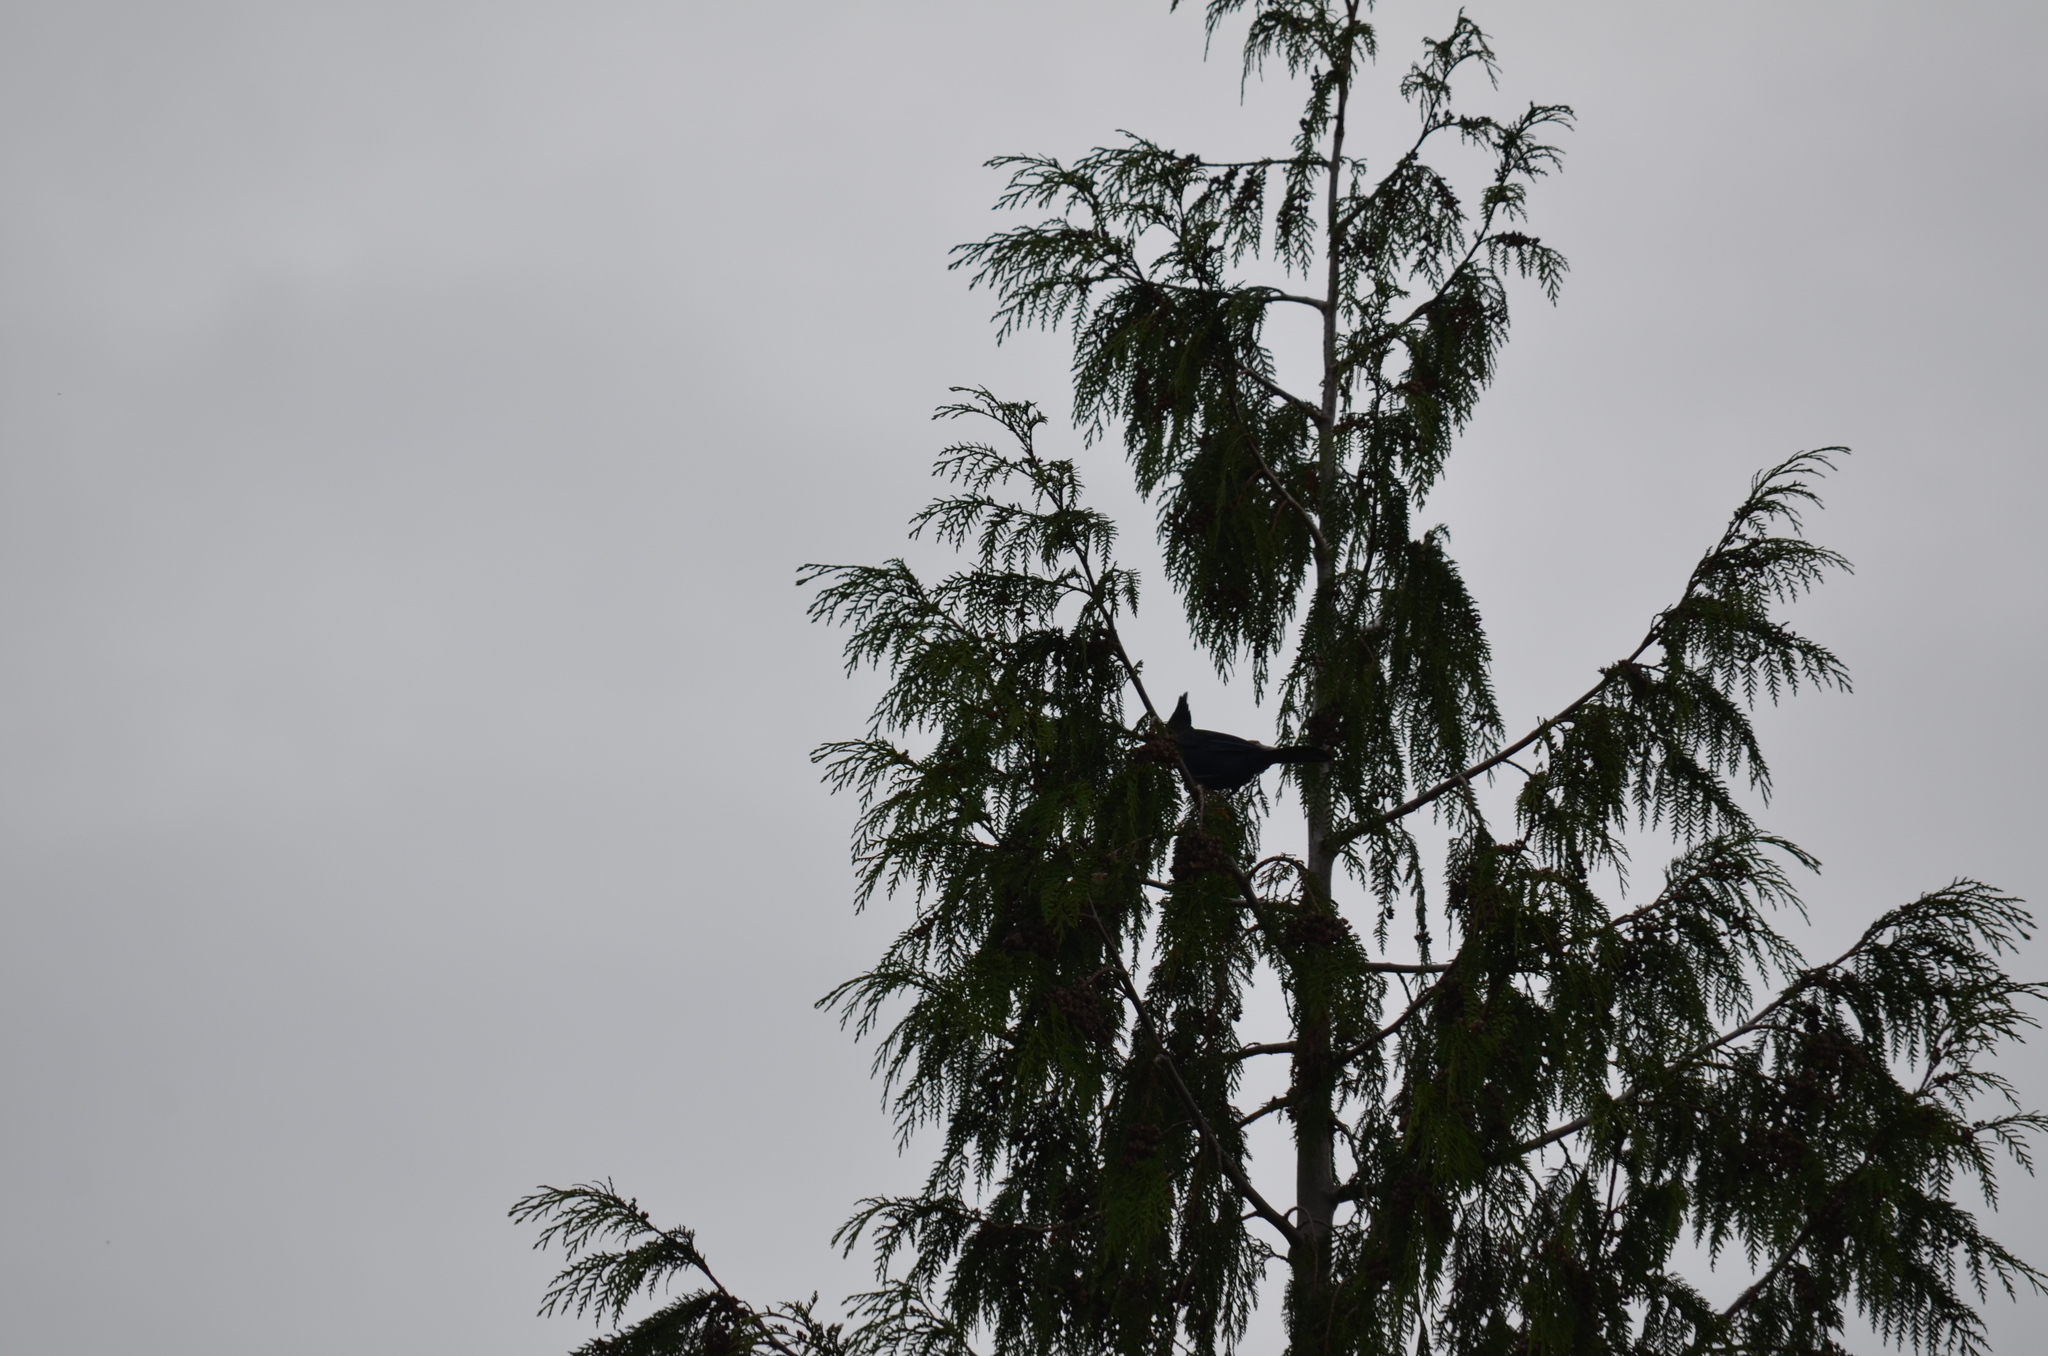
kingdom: Animalia
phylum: Chordata
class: Aves
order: Passeriformes
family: Corvidae
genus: Cyanocitta
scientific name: Cyanocitta stelleri
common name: Steller's jay
